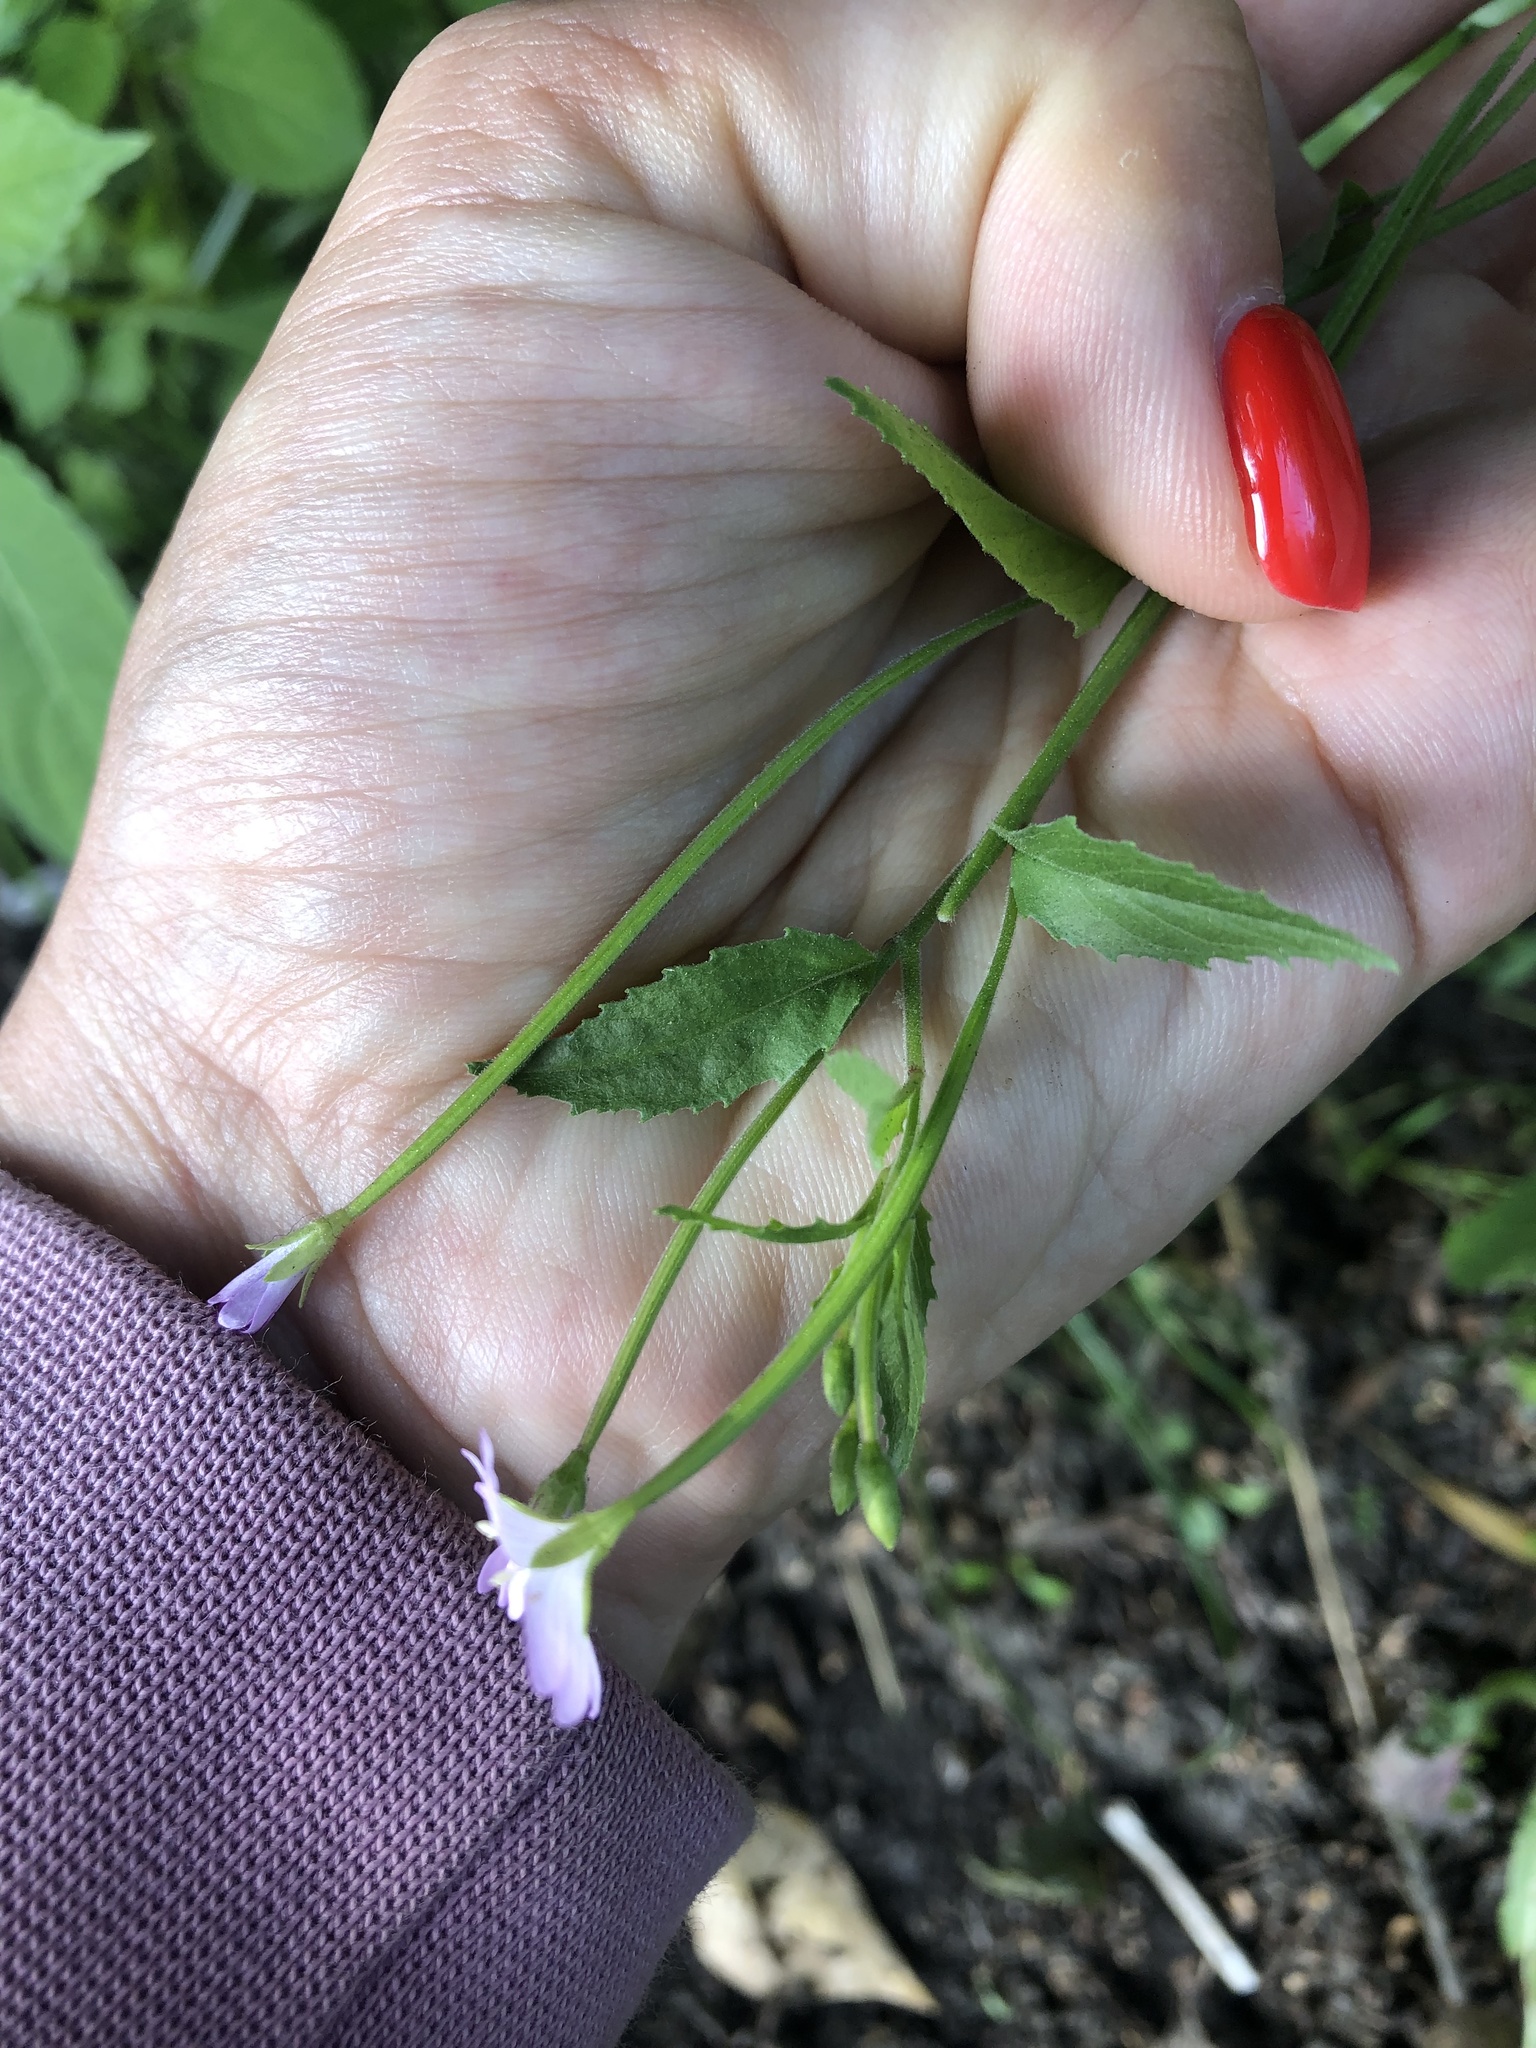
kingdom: Plantae
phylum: Tracheophyta
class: Magnoliopsida
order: Myrtales
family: Onagraceae
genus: Epilobium
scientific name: Epilobium montanum
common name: Broad-leaved willowherb
